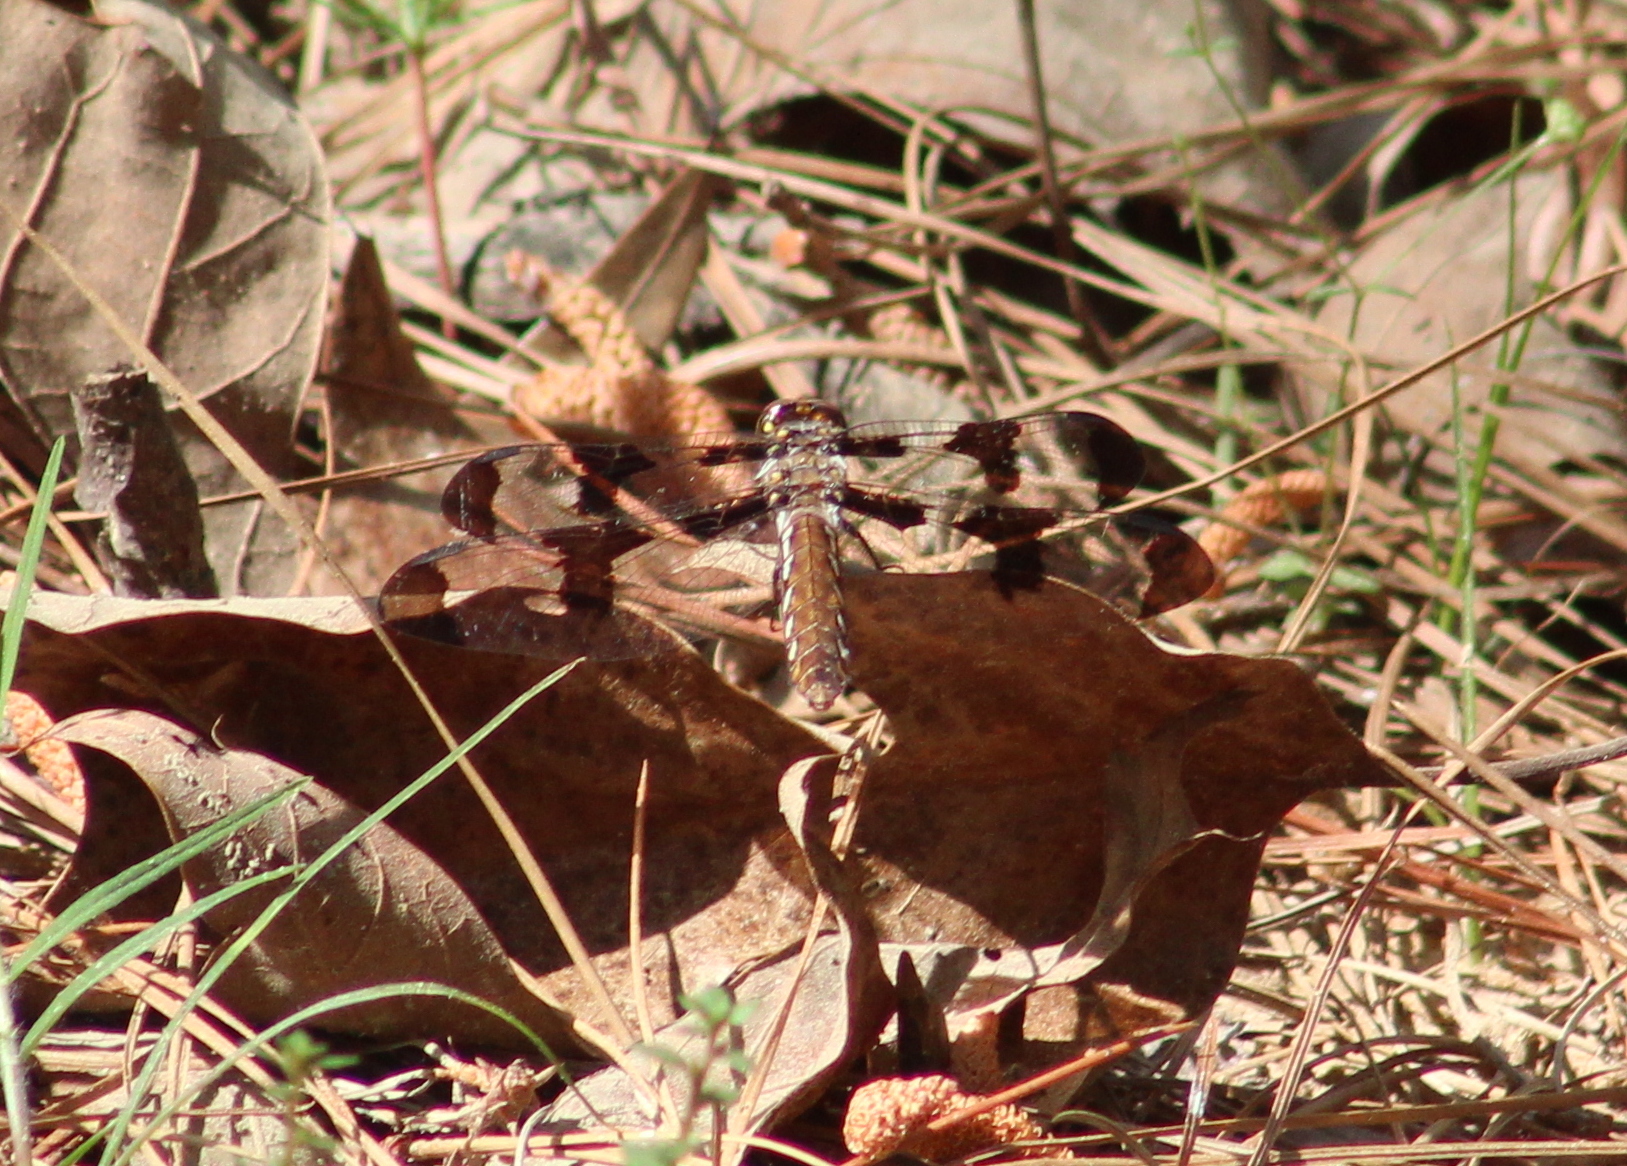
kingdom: Animalia
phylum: Arthropoda
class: Insecta
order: Odonata
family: Libellulidae
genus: Plathemis
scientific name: Plathemis lydia
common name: Common whitetail
